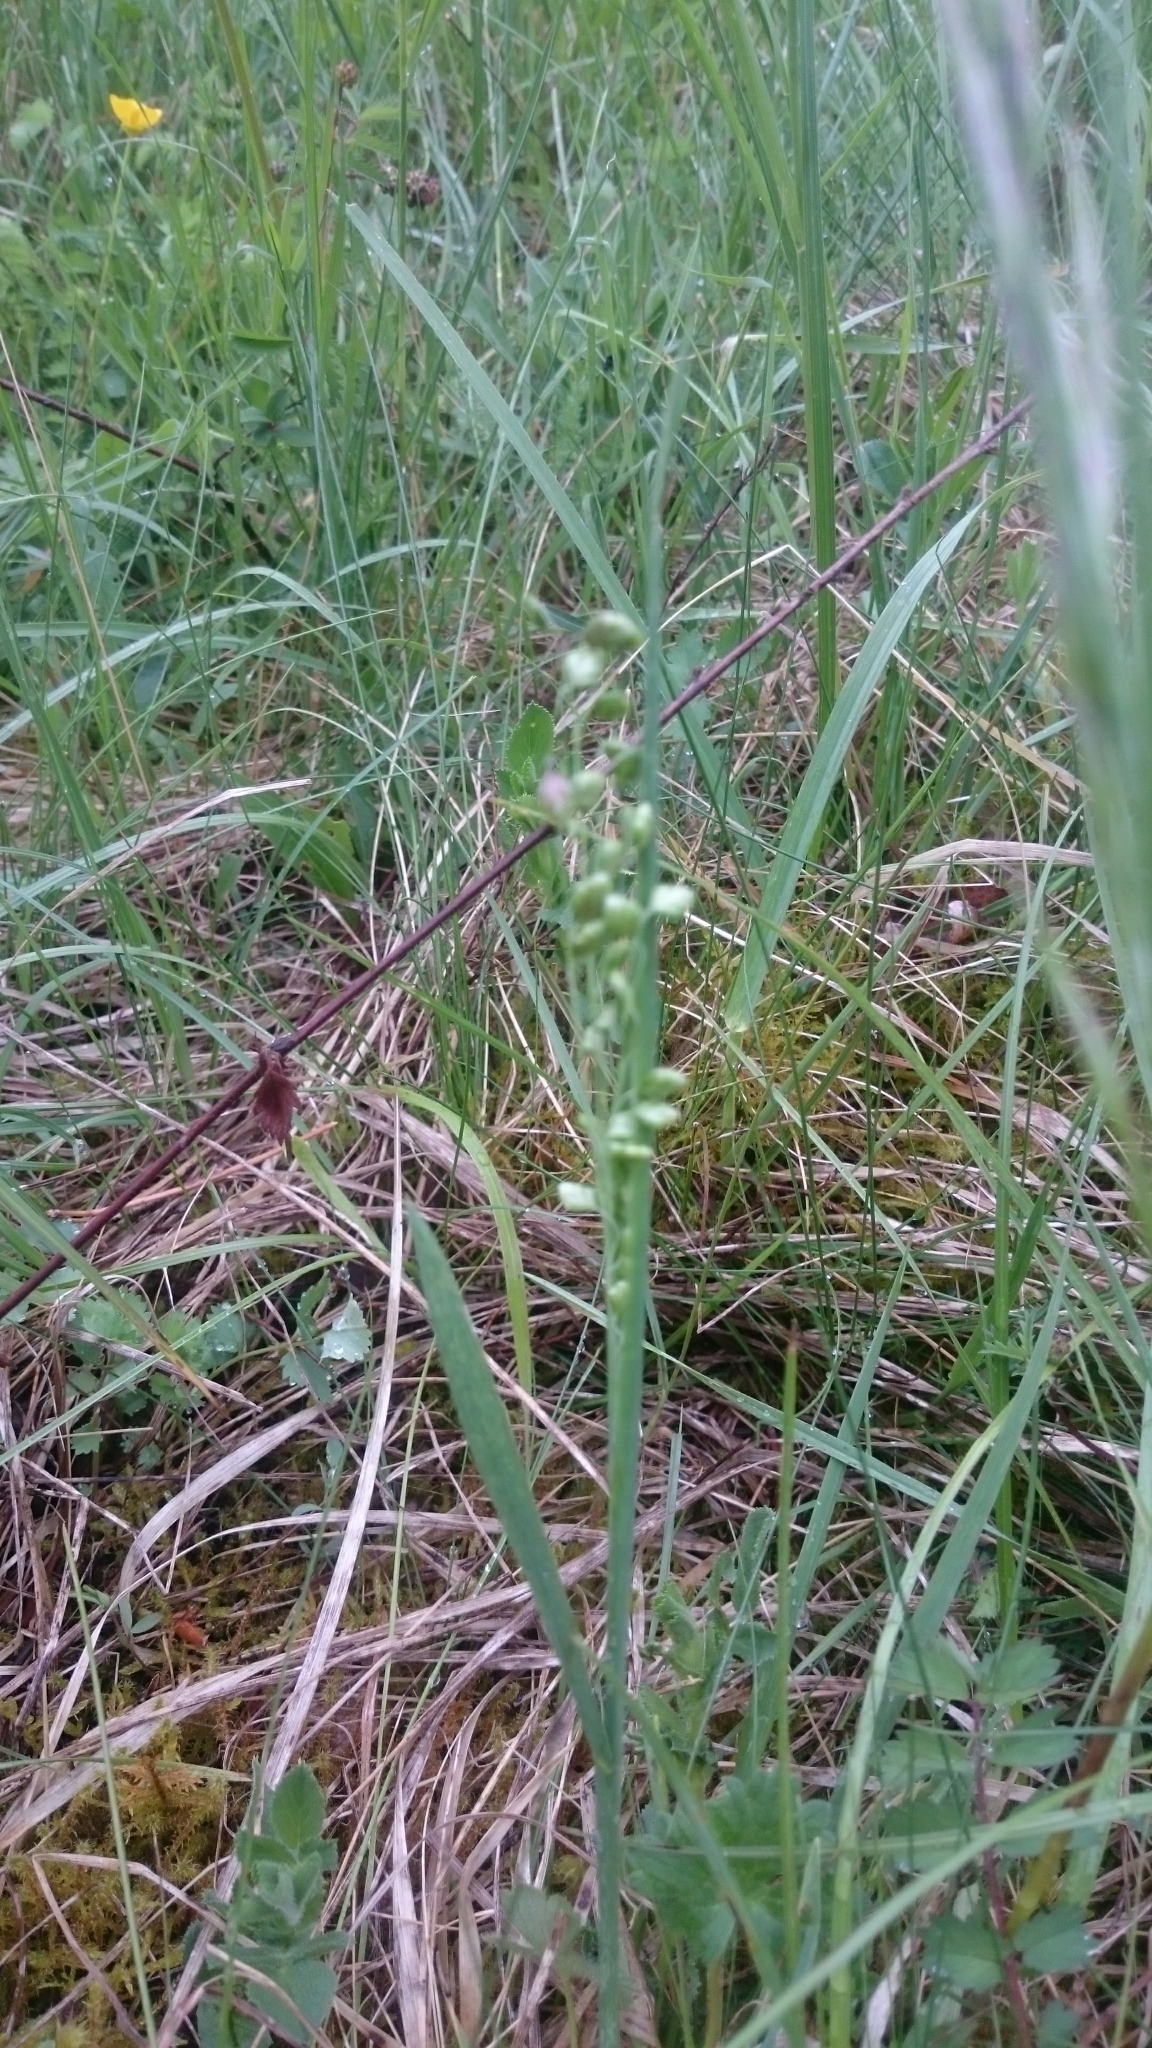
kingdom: Plantae
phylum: Tracheophyta
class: Liliopsida
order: Poales
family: Poaceae
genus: Briza
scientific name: Briza media
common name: Quaking grass
